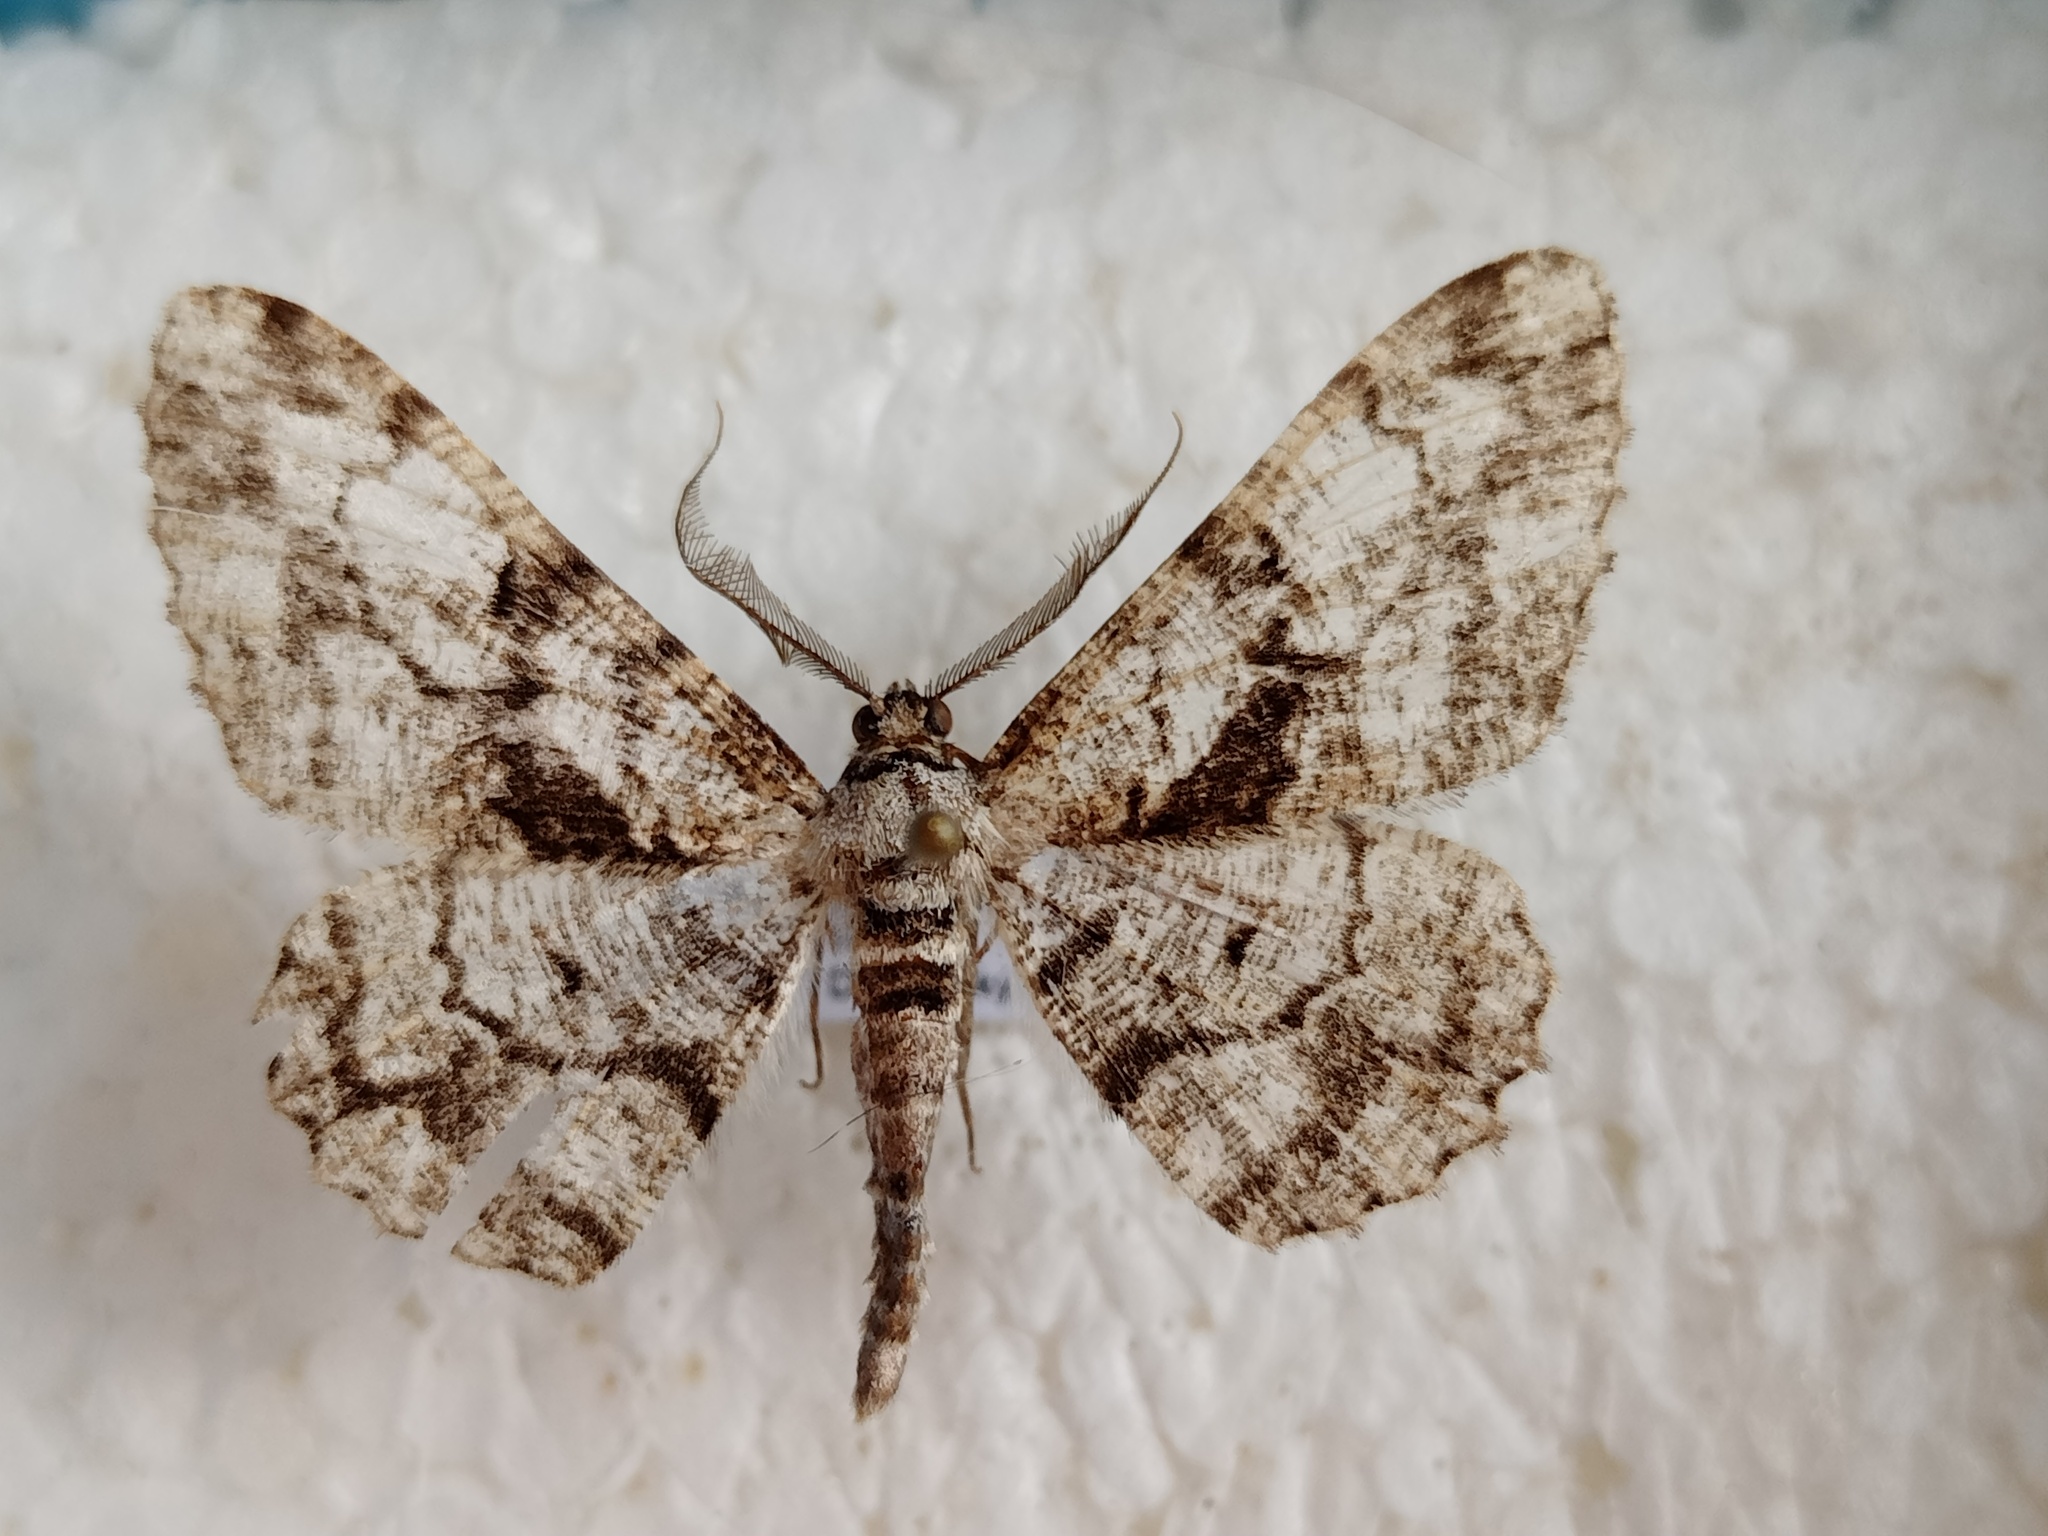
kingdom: Animalia
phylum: Arthropoda
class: Insecta
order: Lepidoptera
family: Geometridae
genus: Peribatodes
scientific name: Peribatodes umbraria
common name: Olive-tree beauty
